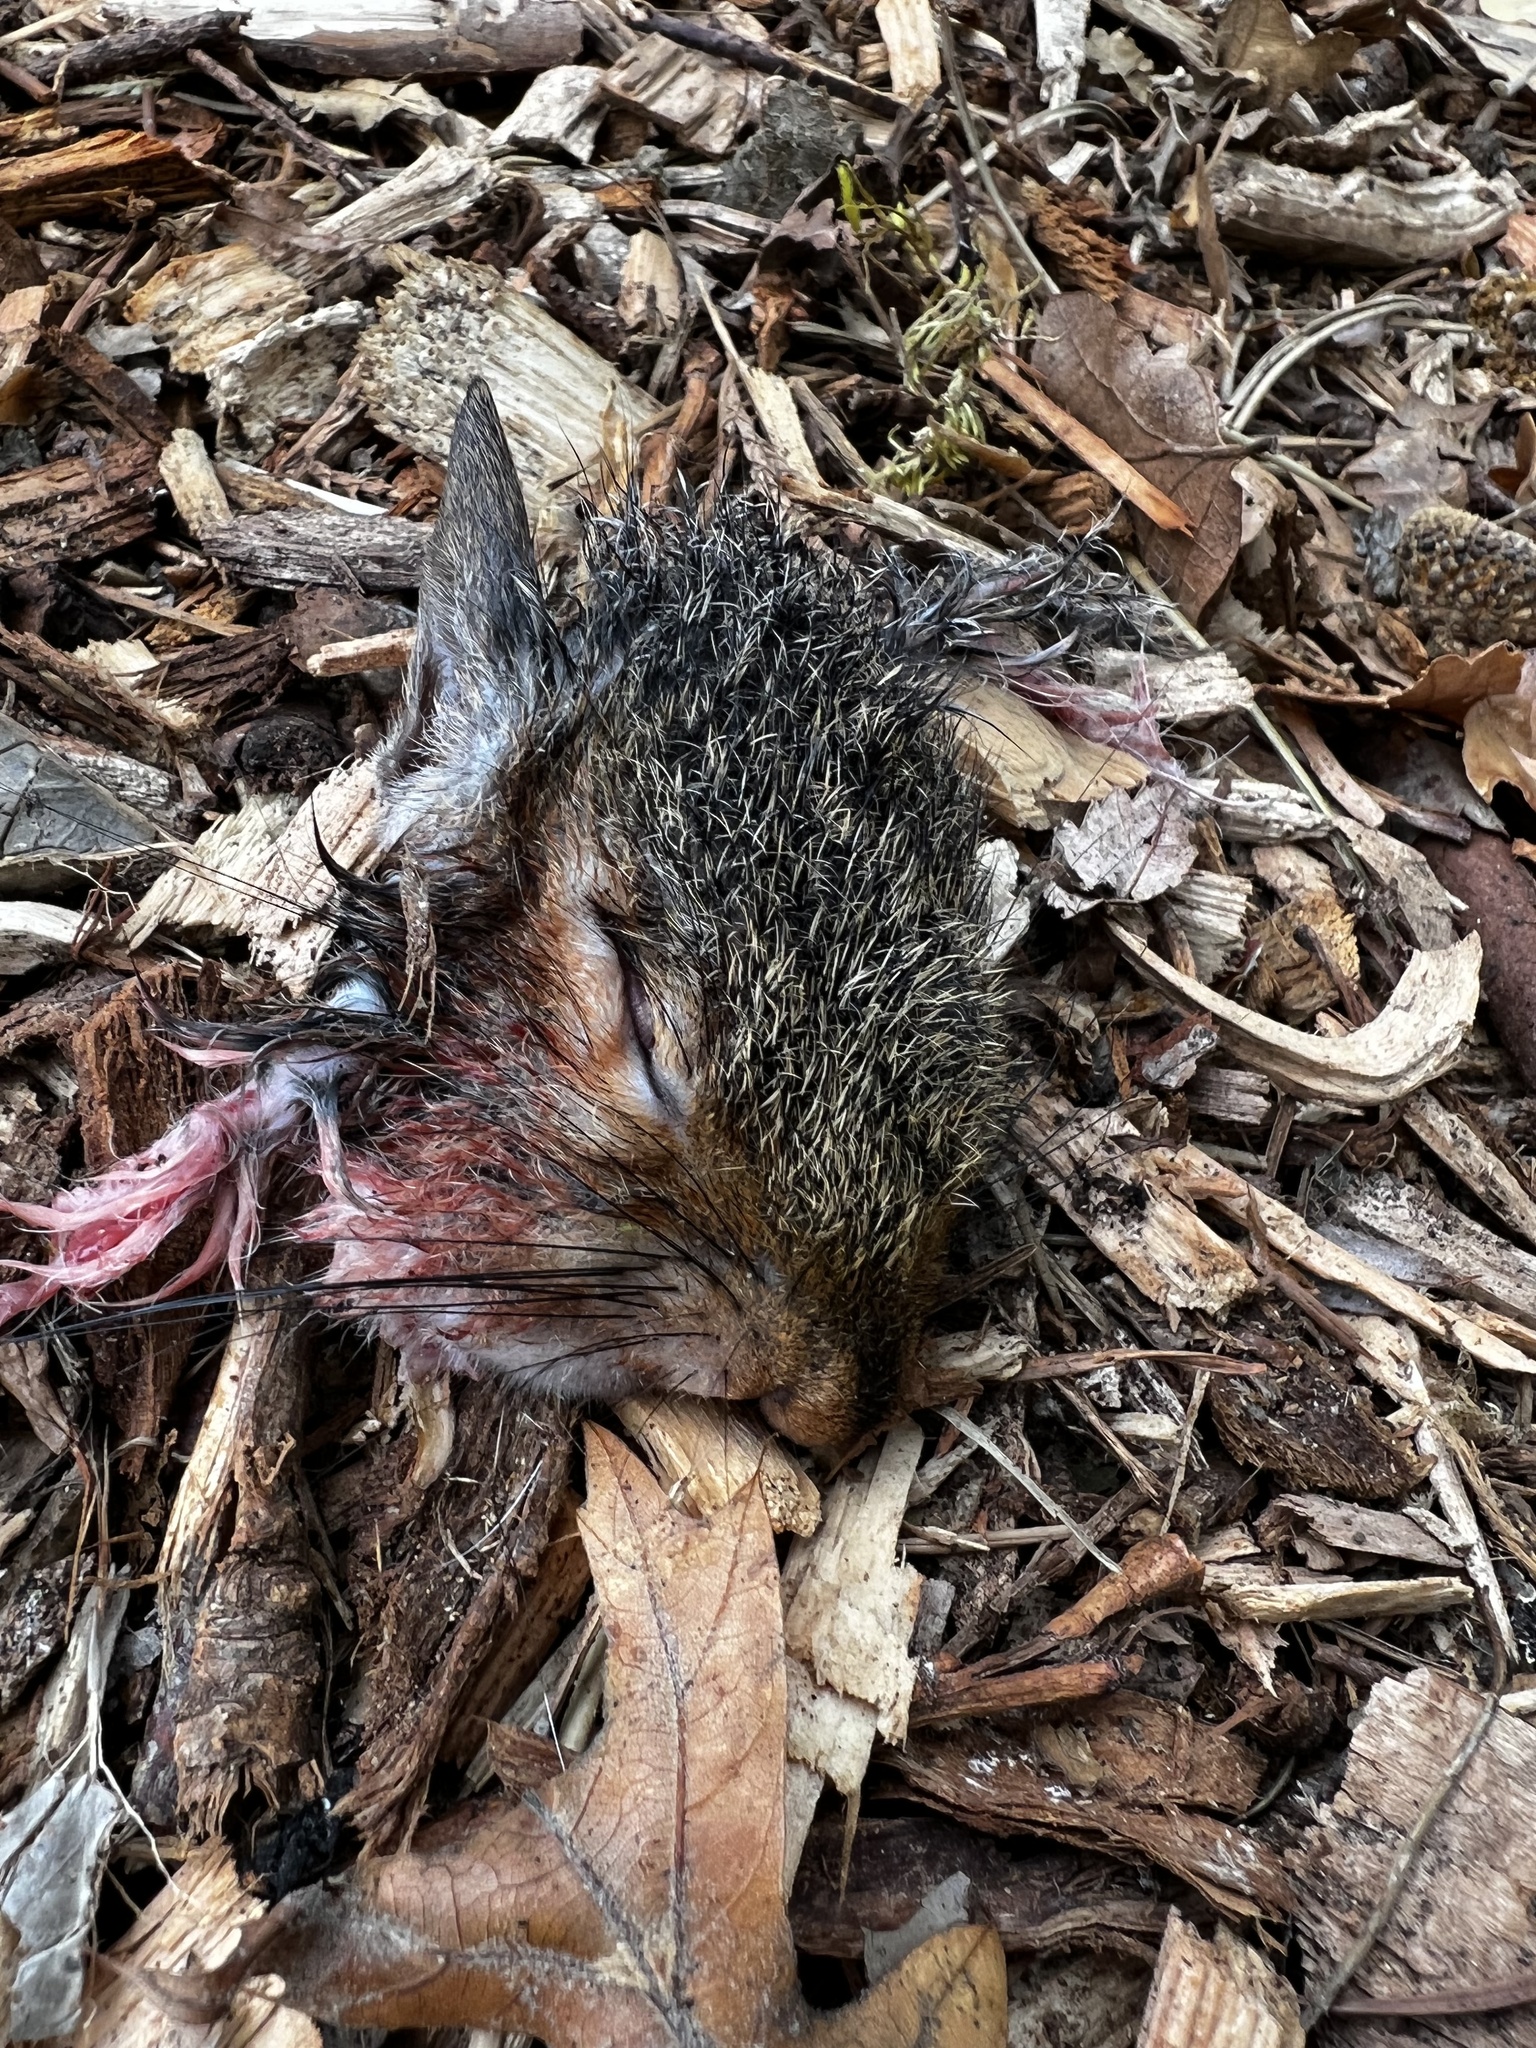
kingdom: Animalia
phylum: Chordata
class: Mammalia
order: Rodentia
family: Sciuridae
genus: Sciurus
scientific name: Sciurus carolinensis
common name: Eastern gray squirrel
